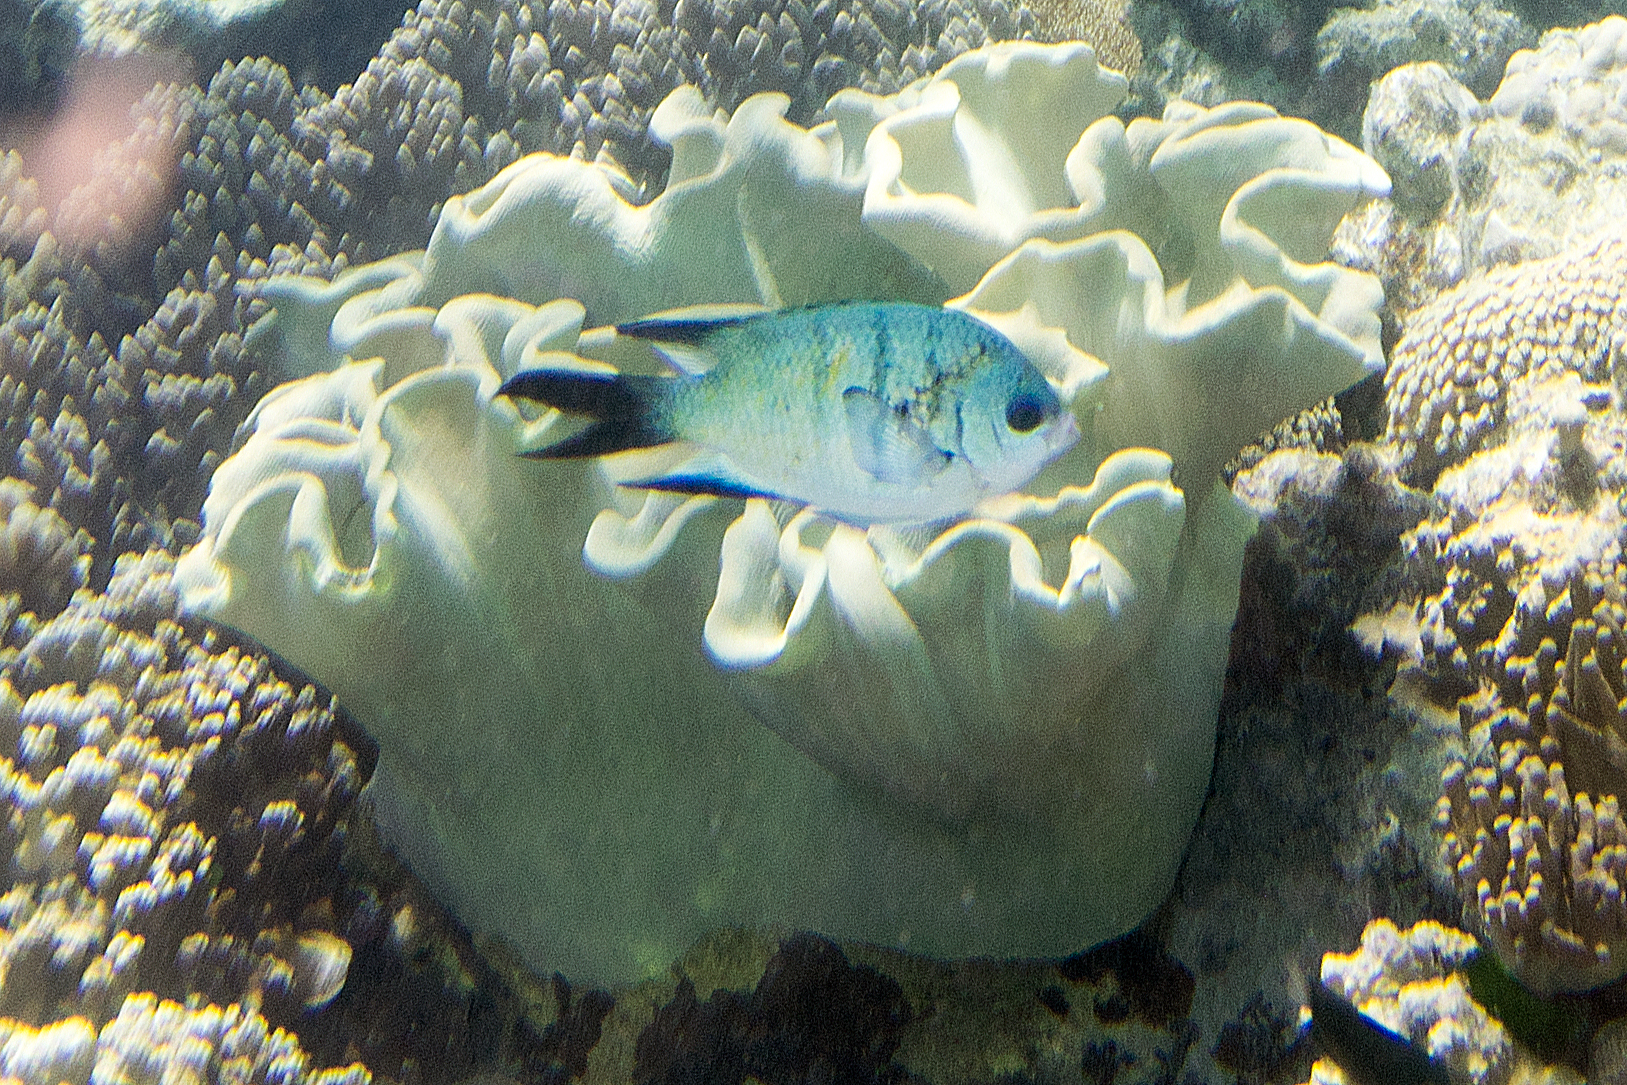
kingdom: Animalia
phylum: Chordata
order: Perciformes
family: Pomacentridae
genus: Abudefduf
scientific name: Abudefduf whitleyi
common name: Whitley's seargent
